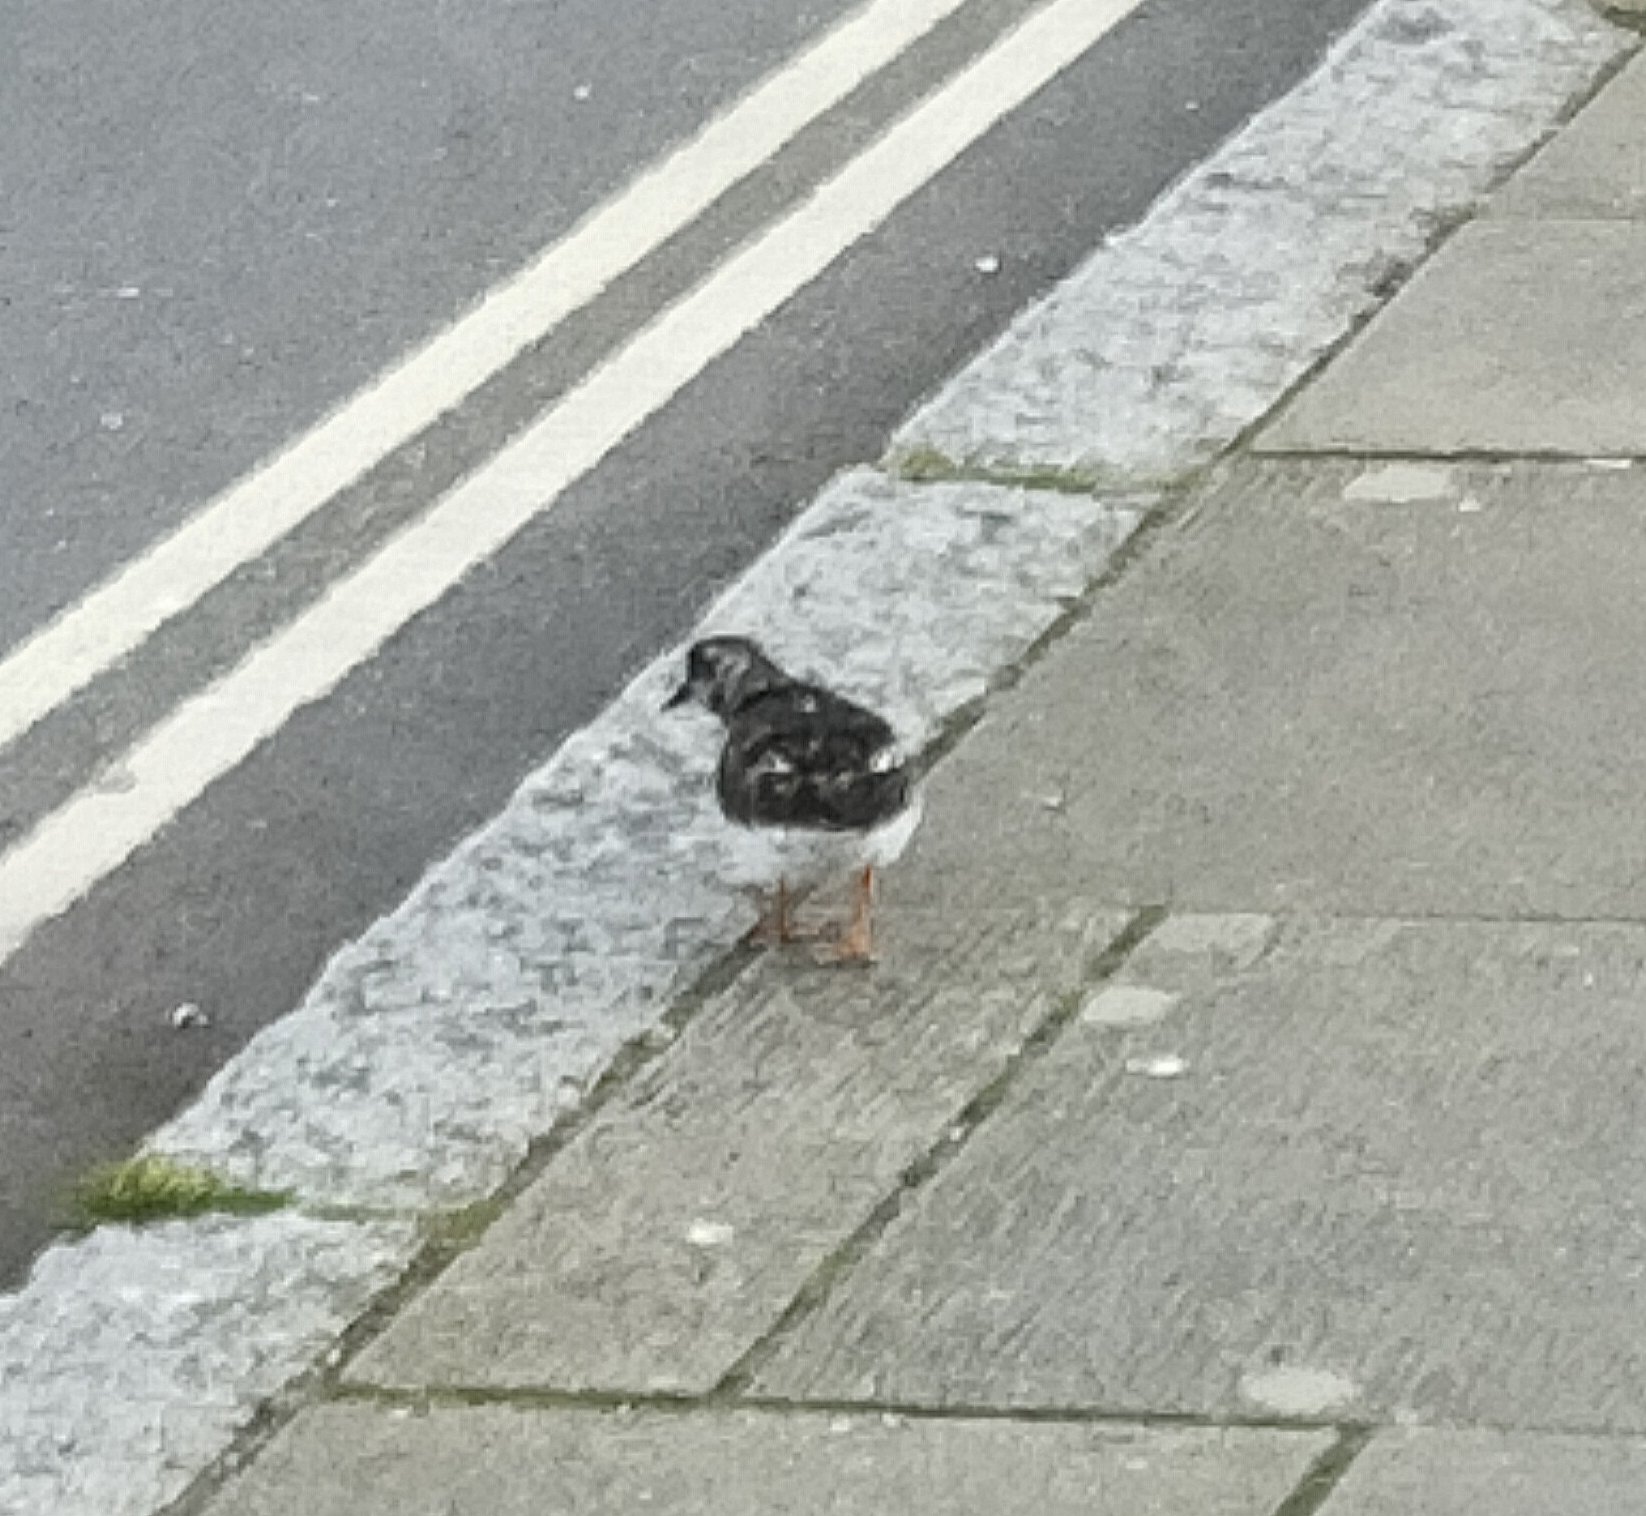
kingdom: Animalia
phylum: Chordata
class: Aves
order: Charadriiformes
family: Scolopacidae
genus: Arenaria
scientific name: Arenaria interpres
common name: Ruddy turnstone
